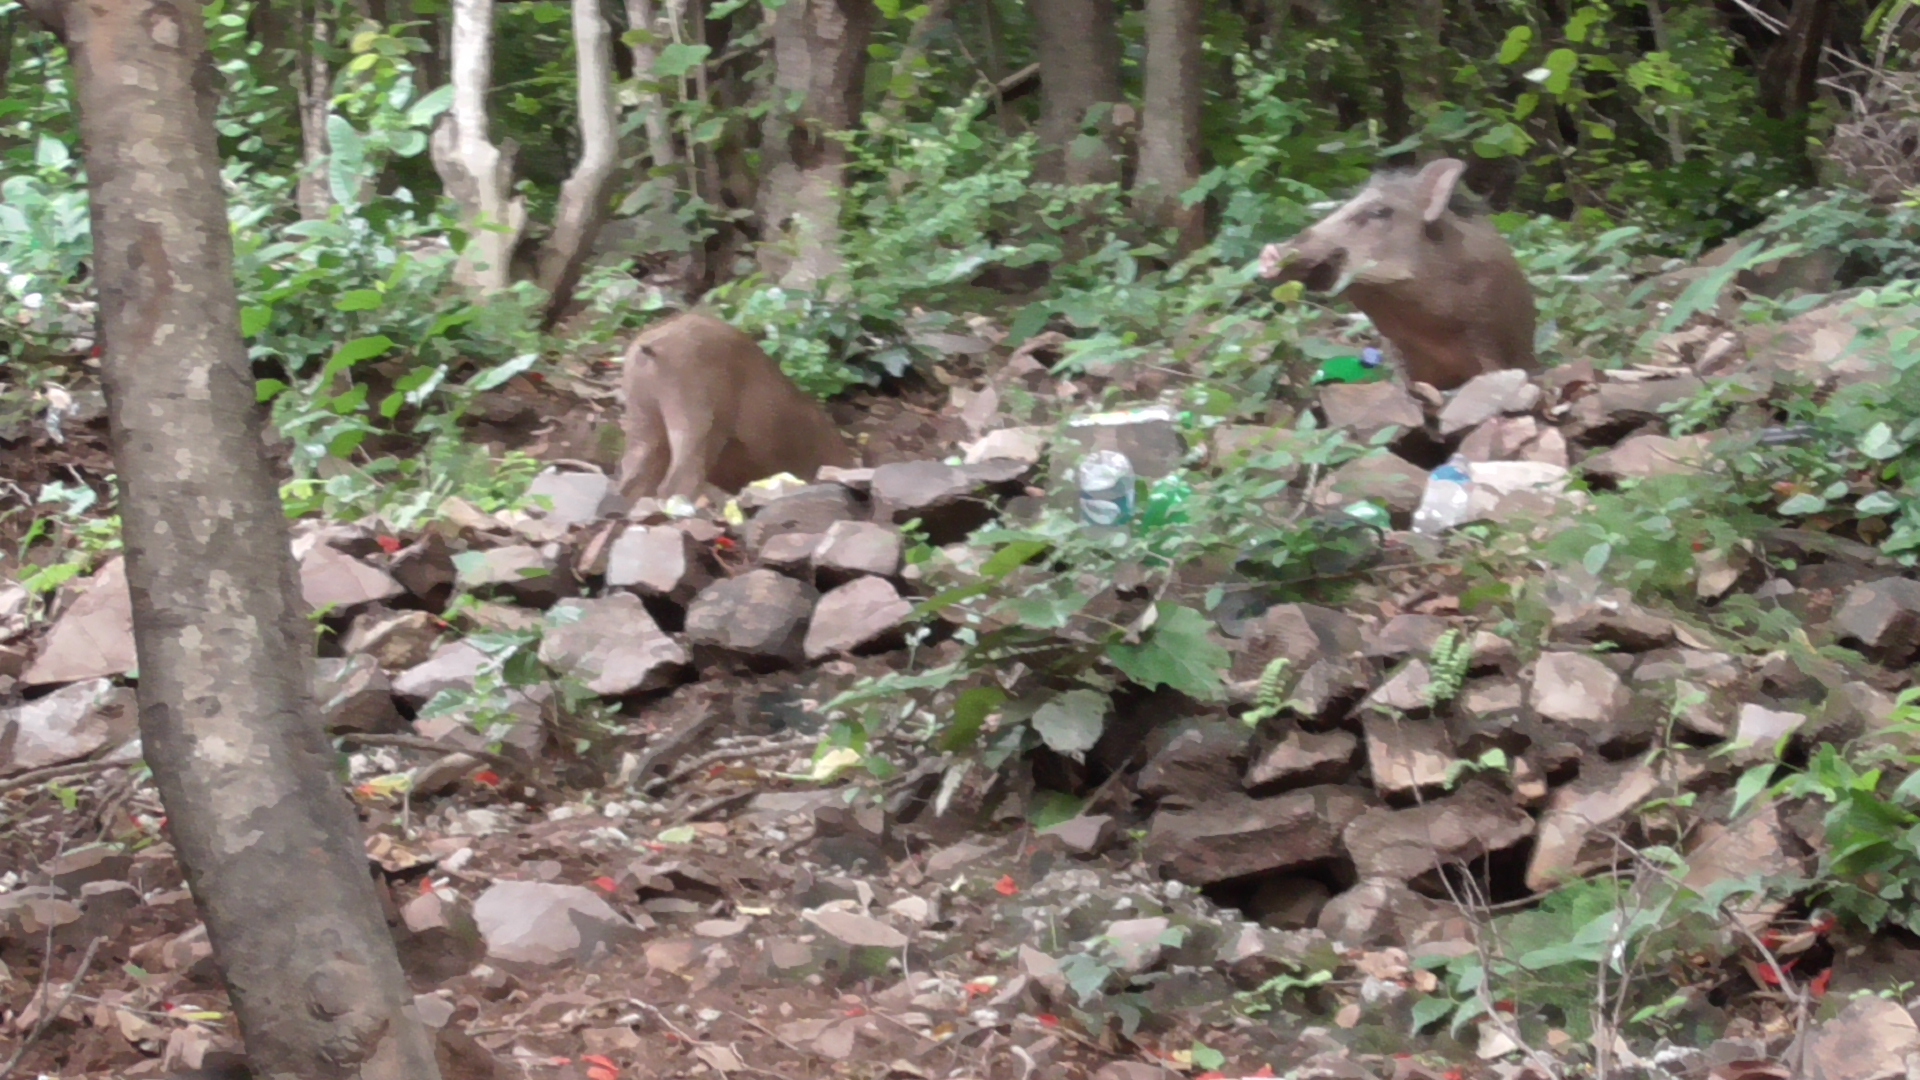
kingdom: Animalia
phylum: Chordata
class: Mammalia
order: Artiodactyla
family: Suidae
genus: Sus
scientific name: Sus scrofa
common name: Wild boar
